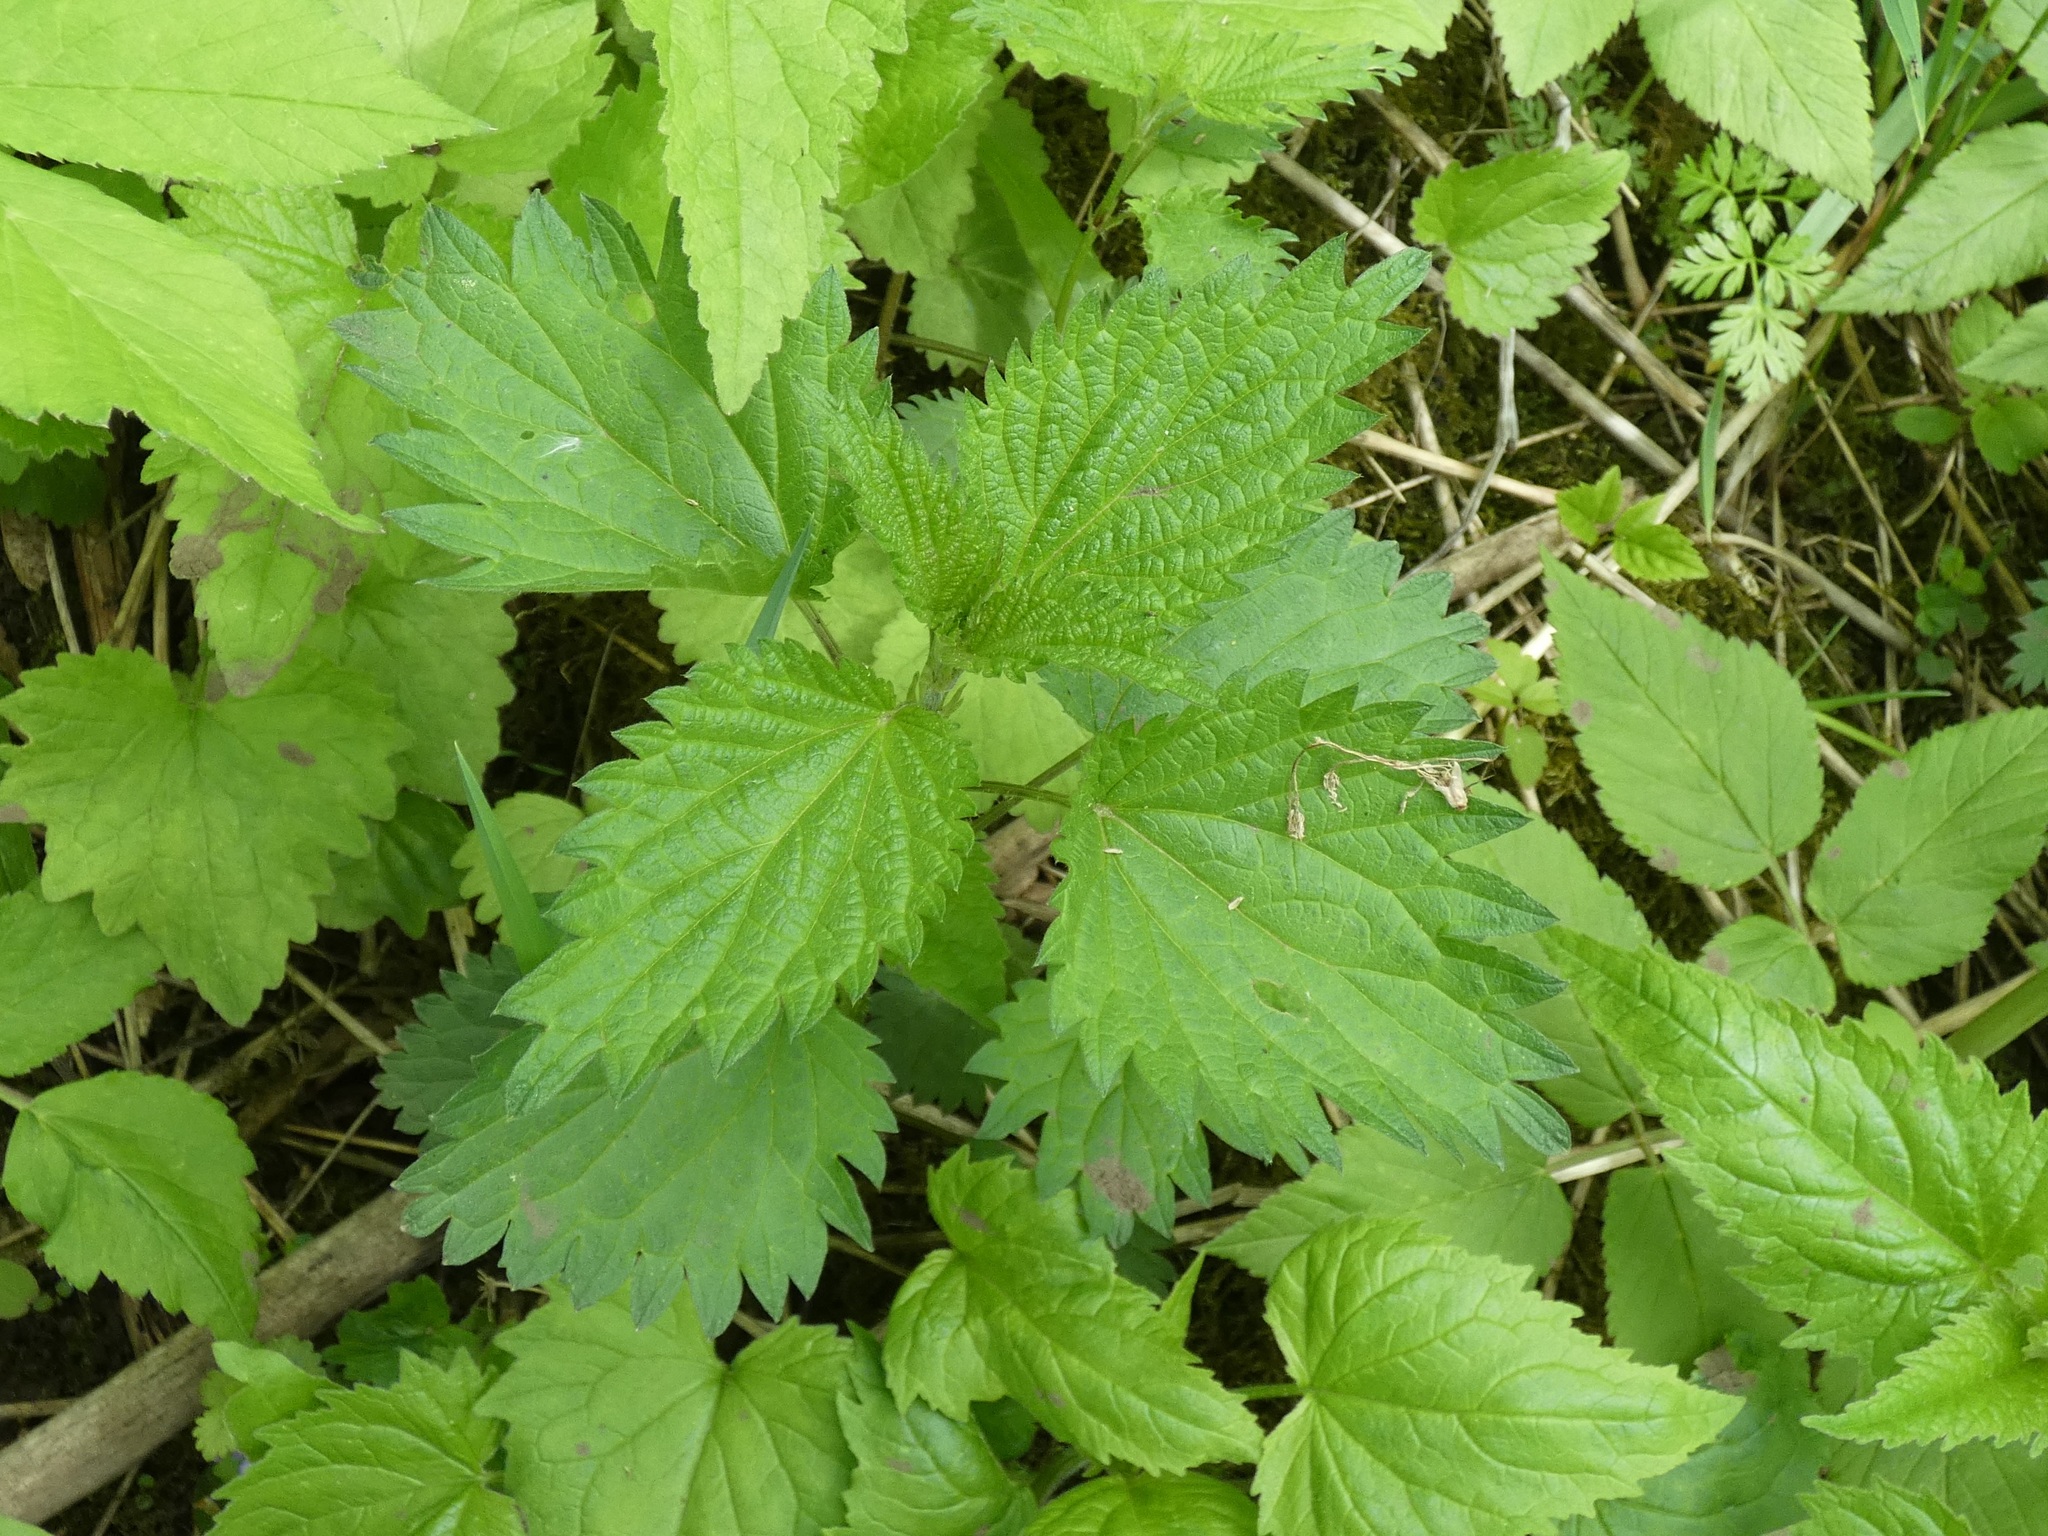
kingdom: Plantae
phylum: Tracheophyta
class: Magnoliopsida
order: Rosales
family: Urticaceae
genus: Urtica
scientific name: Urtica dioica
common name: Common nettle
